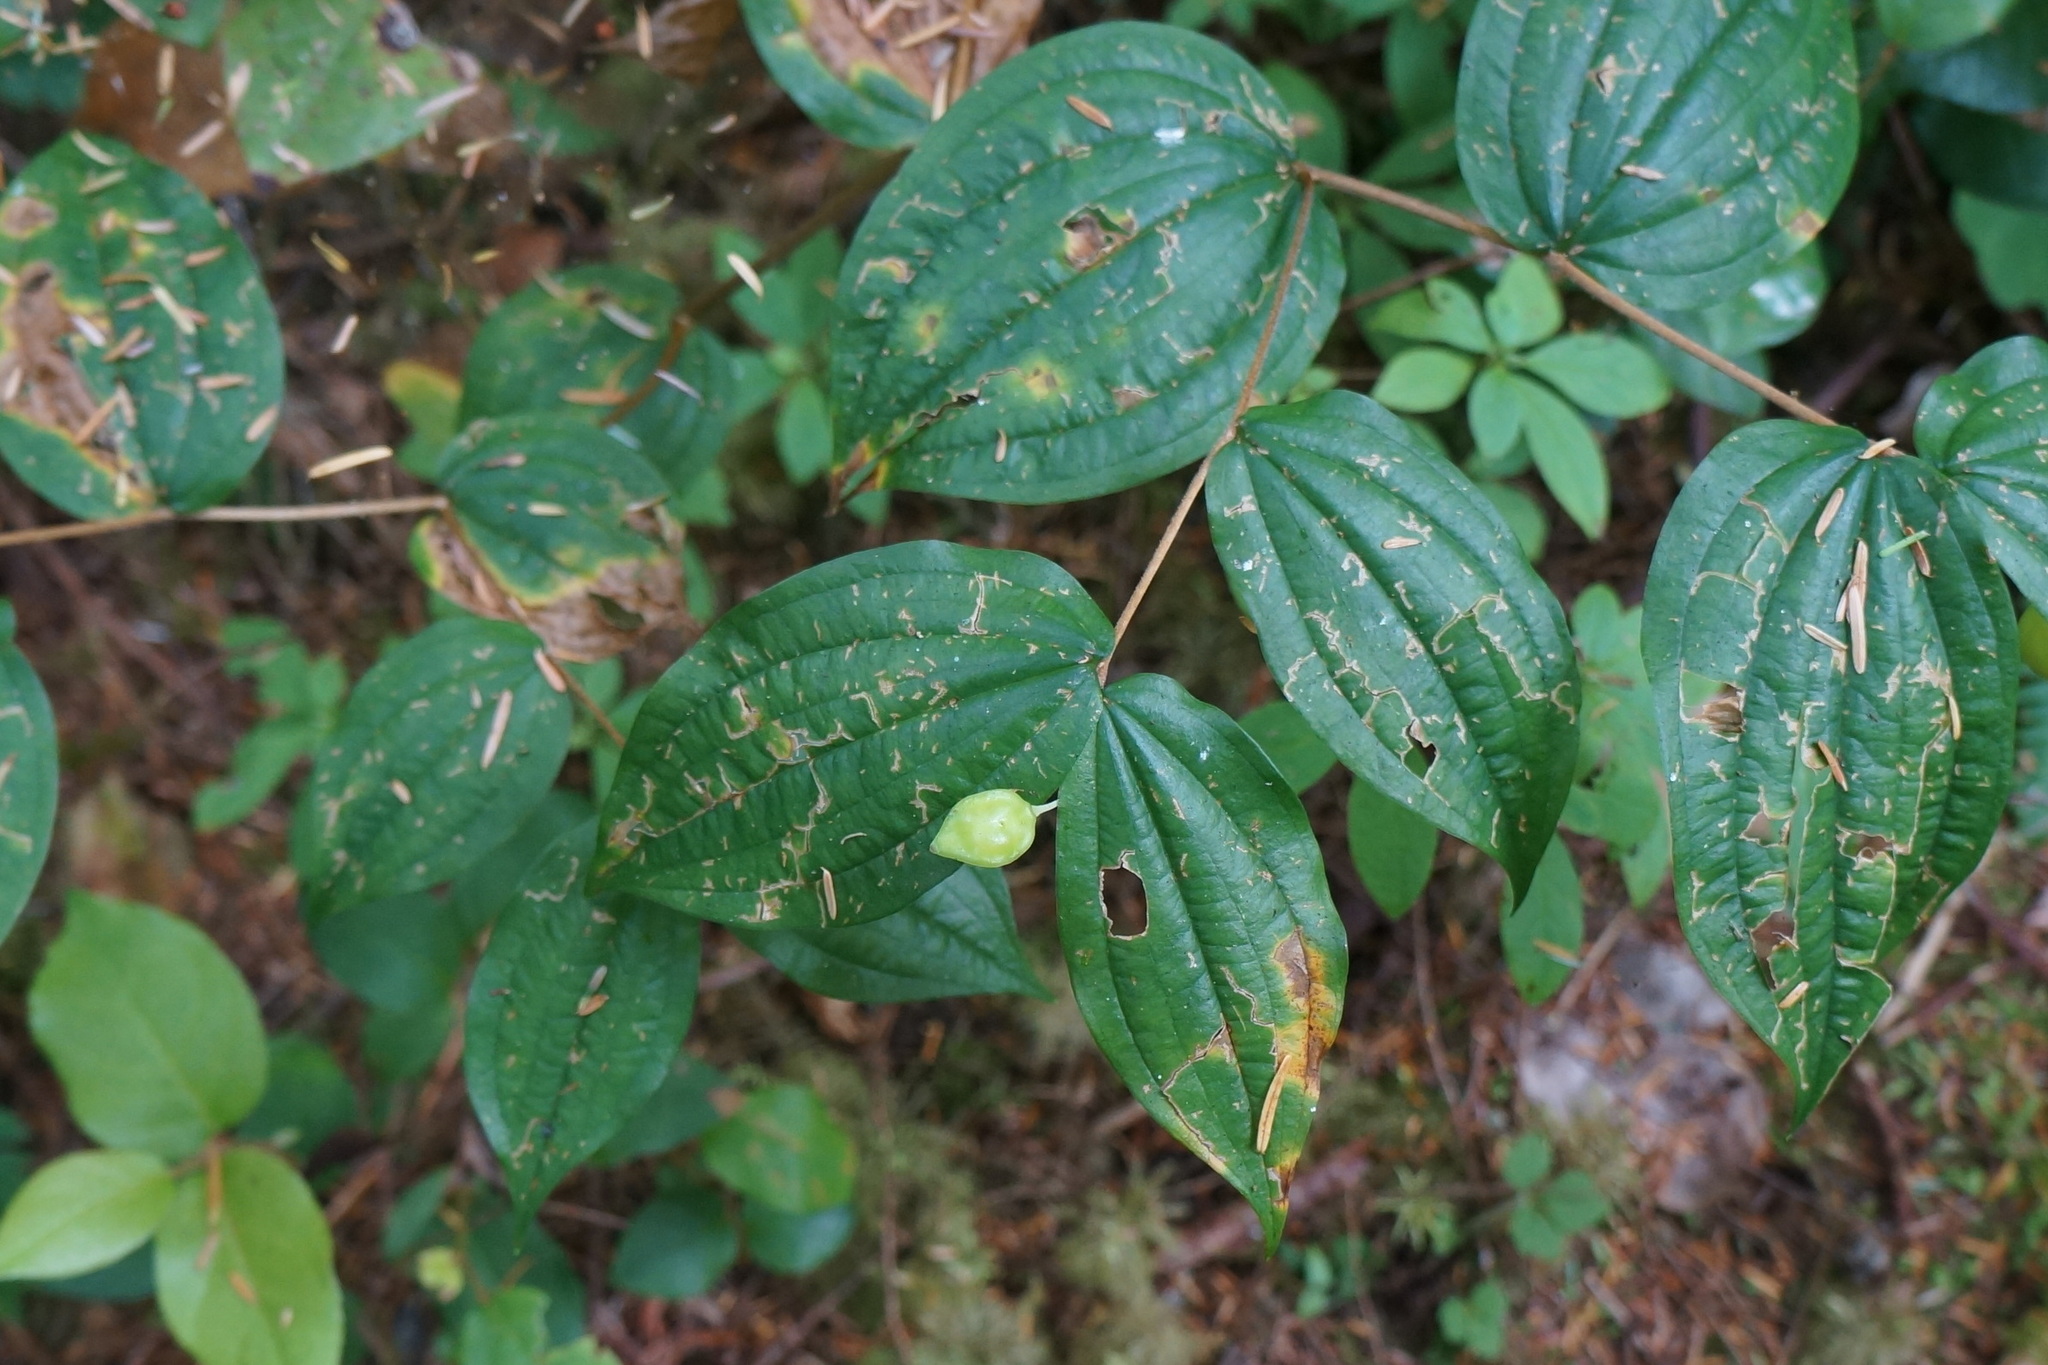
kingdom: Plantae
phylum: Tracheophyta
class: Liliopsida
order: Liliales
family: Liliaceae
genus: Prosartes
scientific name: Prosartes smithii
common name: Fairy-lantern
